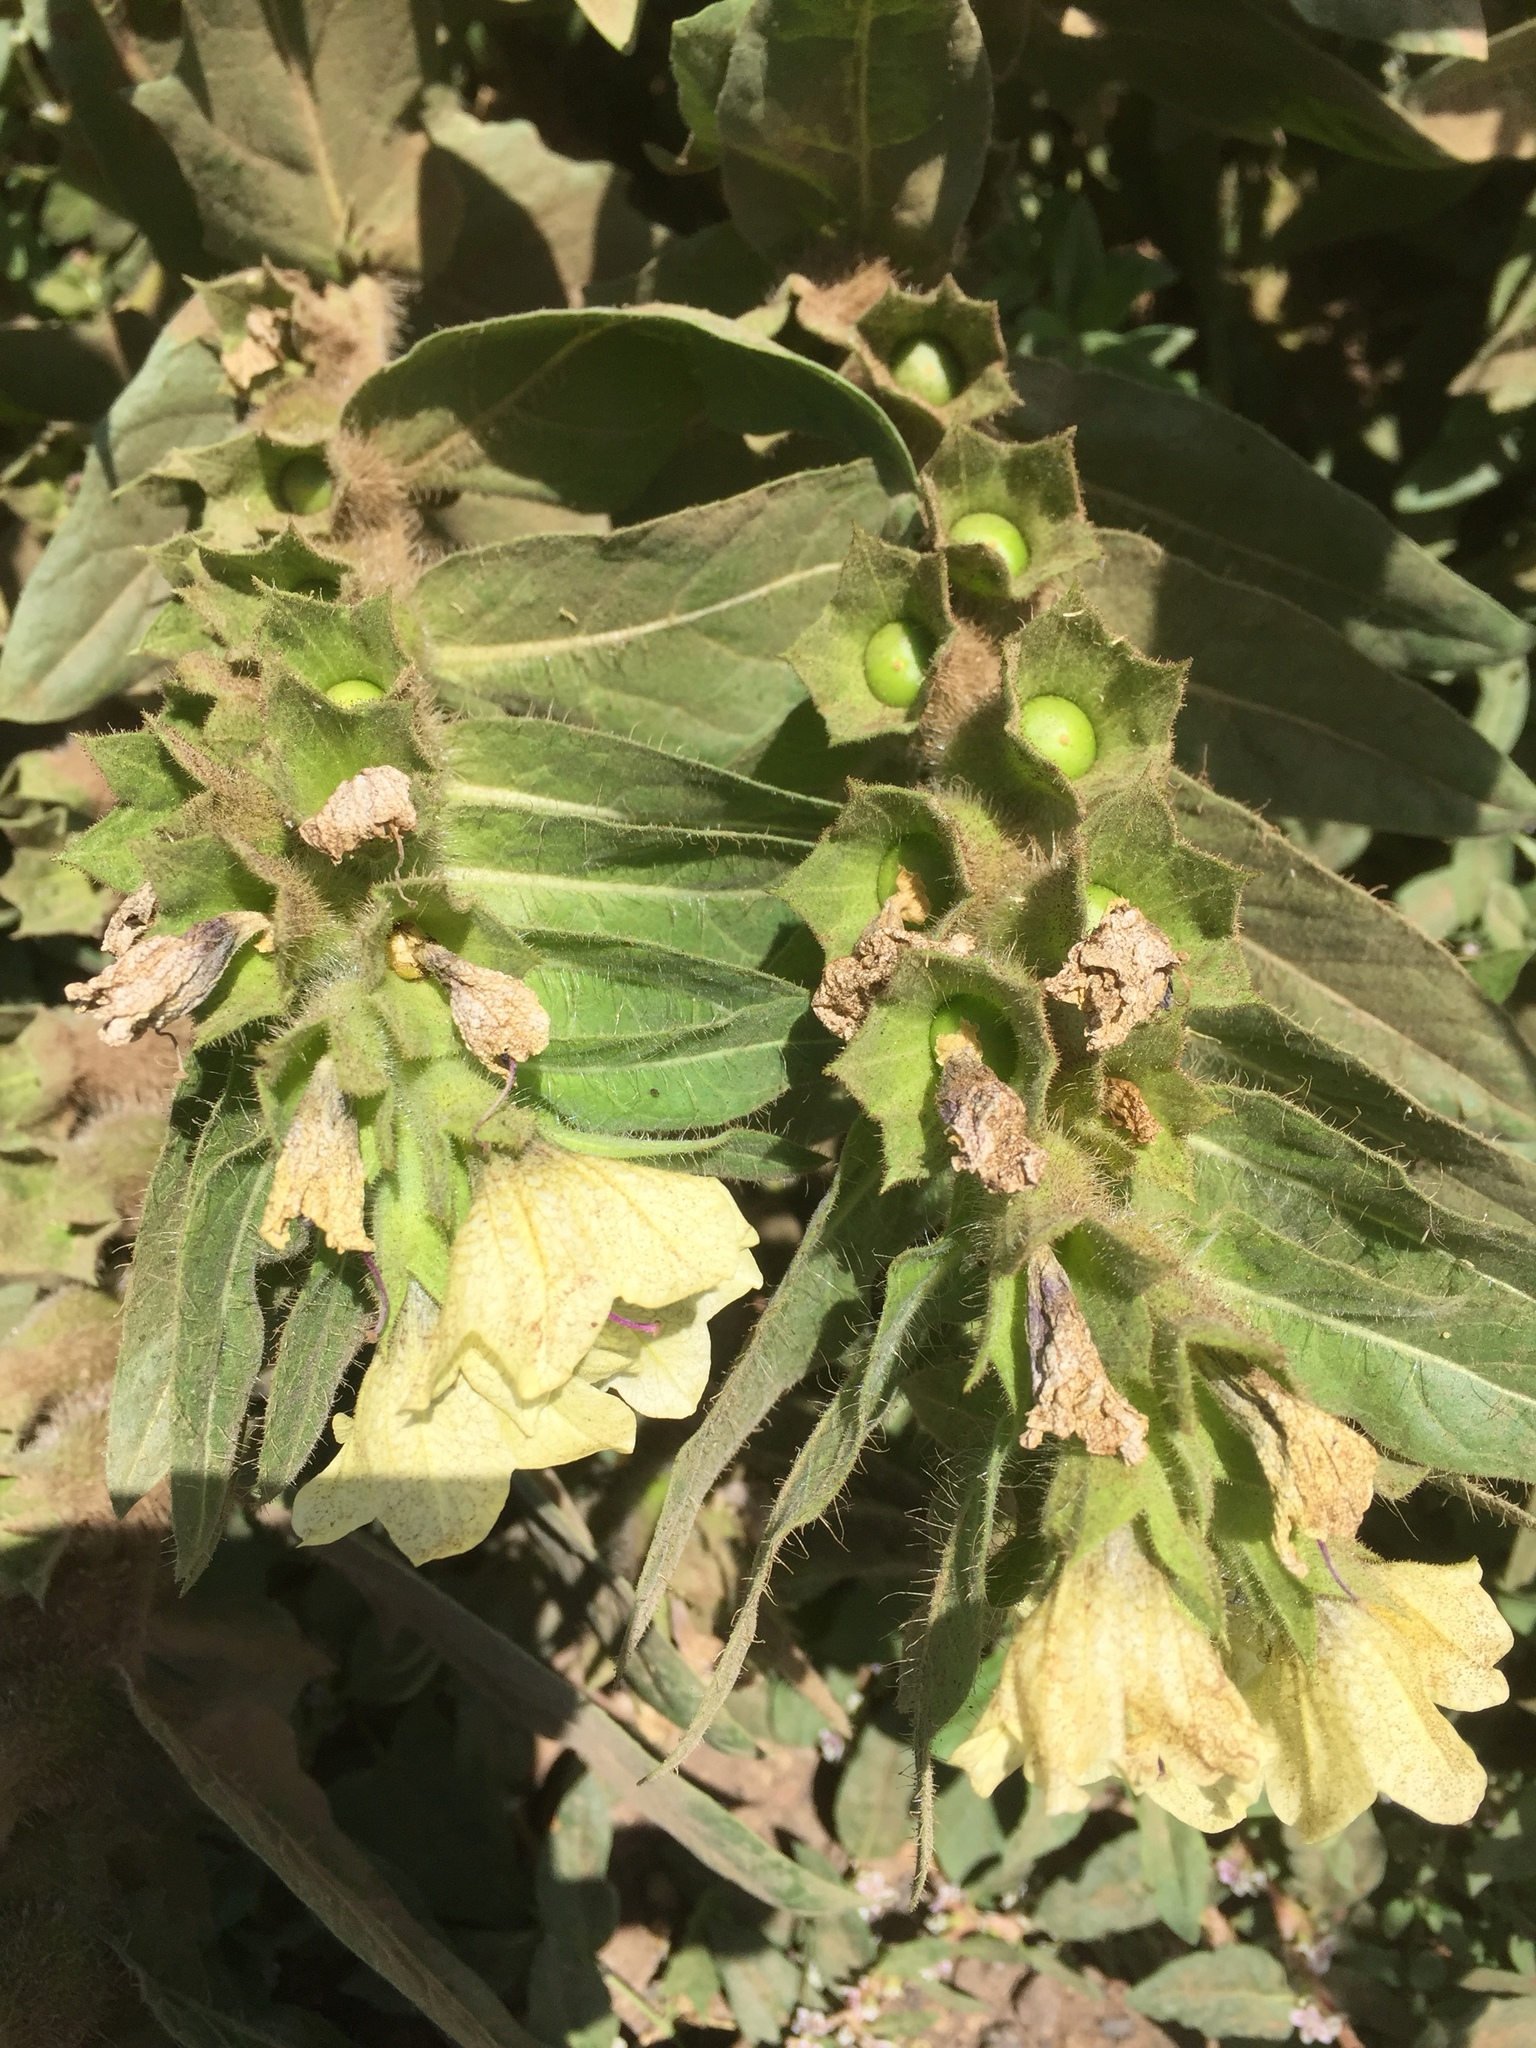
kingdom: Plantae
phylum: Tracheophyta
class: Magnoliopsida
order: Solanales
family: Solanaceae
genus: Hyoscyamus
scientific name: Hyoscyamus niger
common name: Henbane
